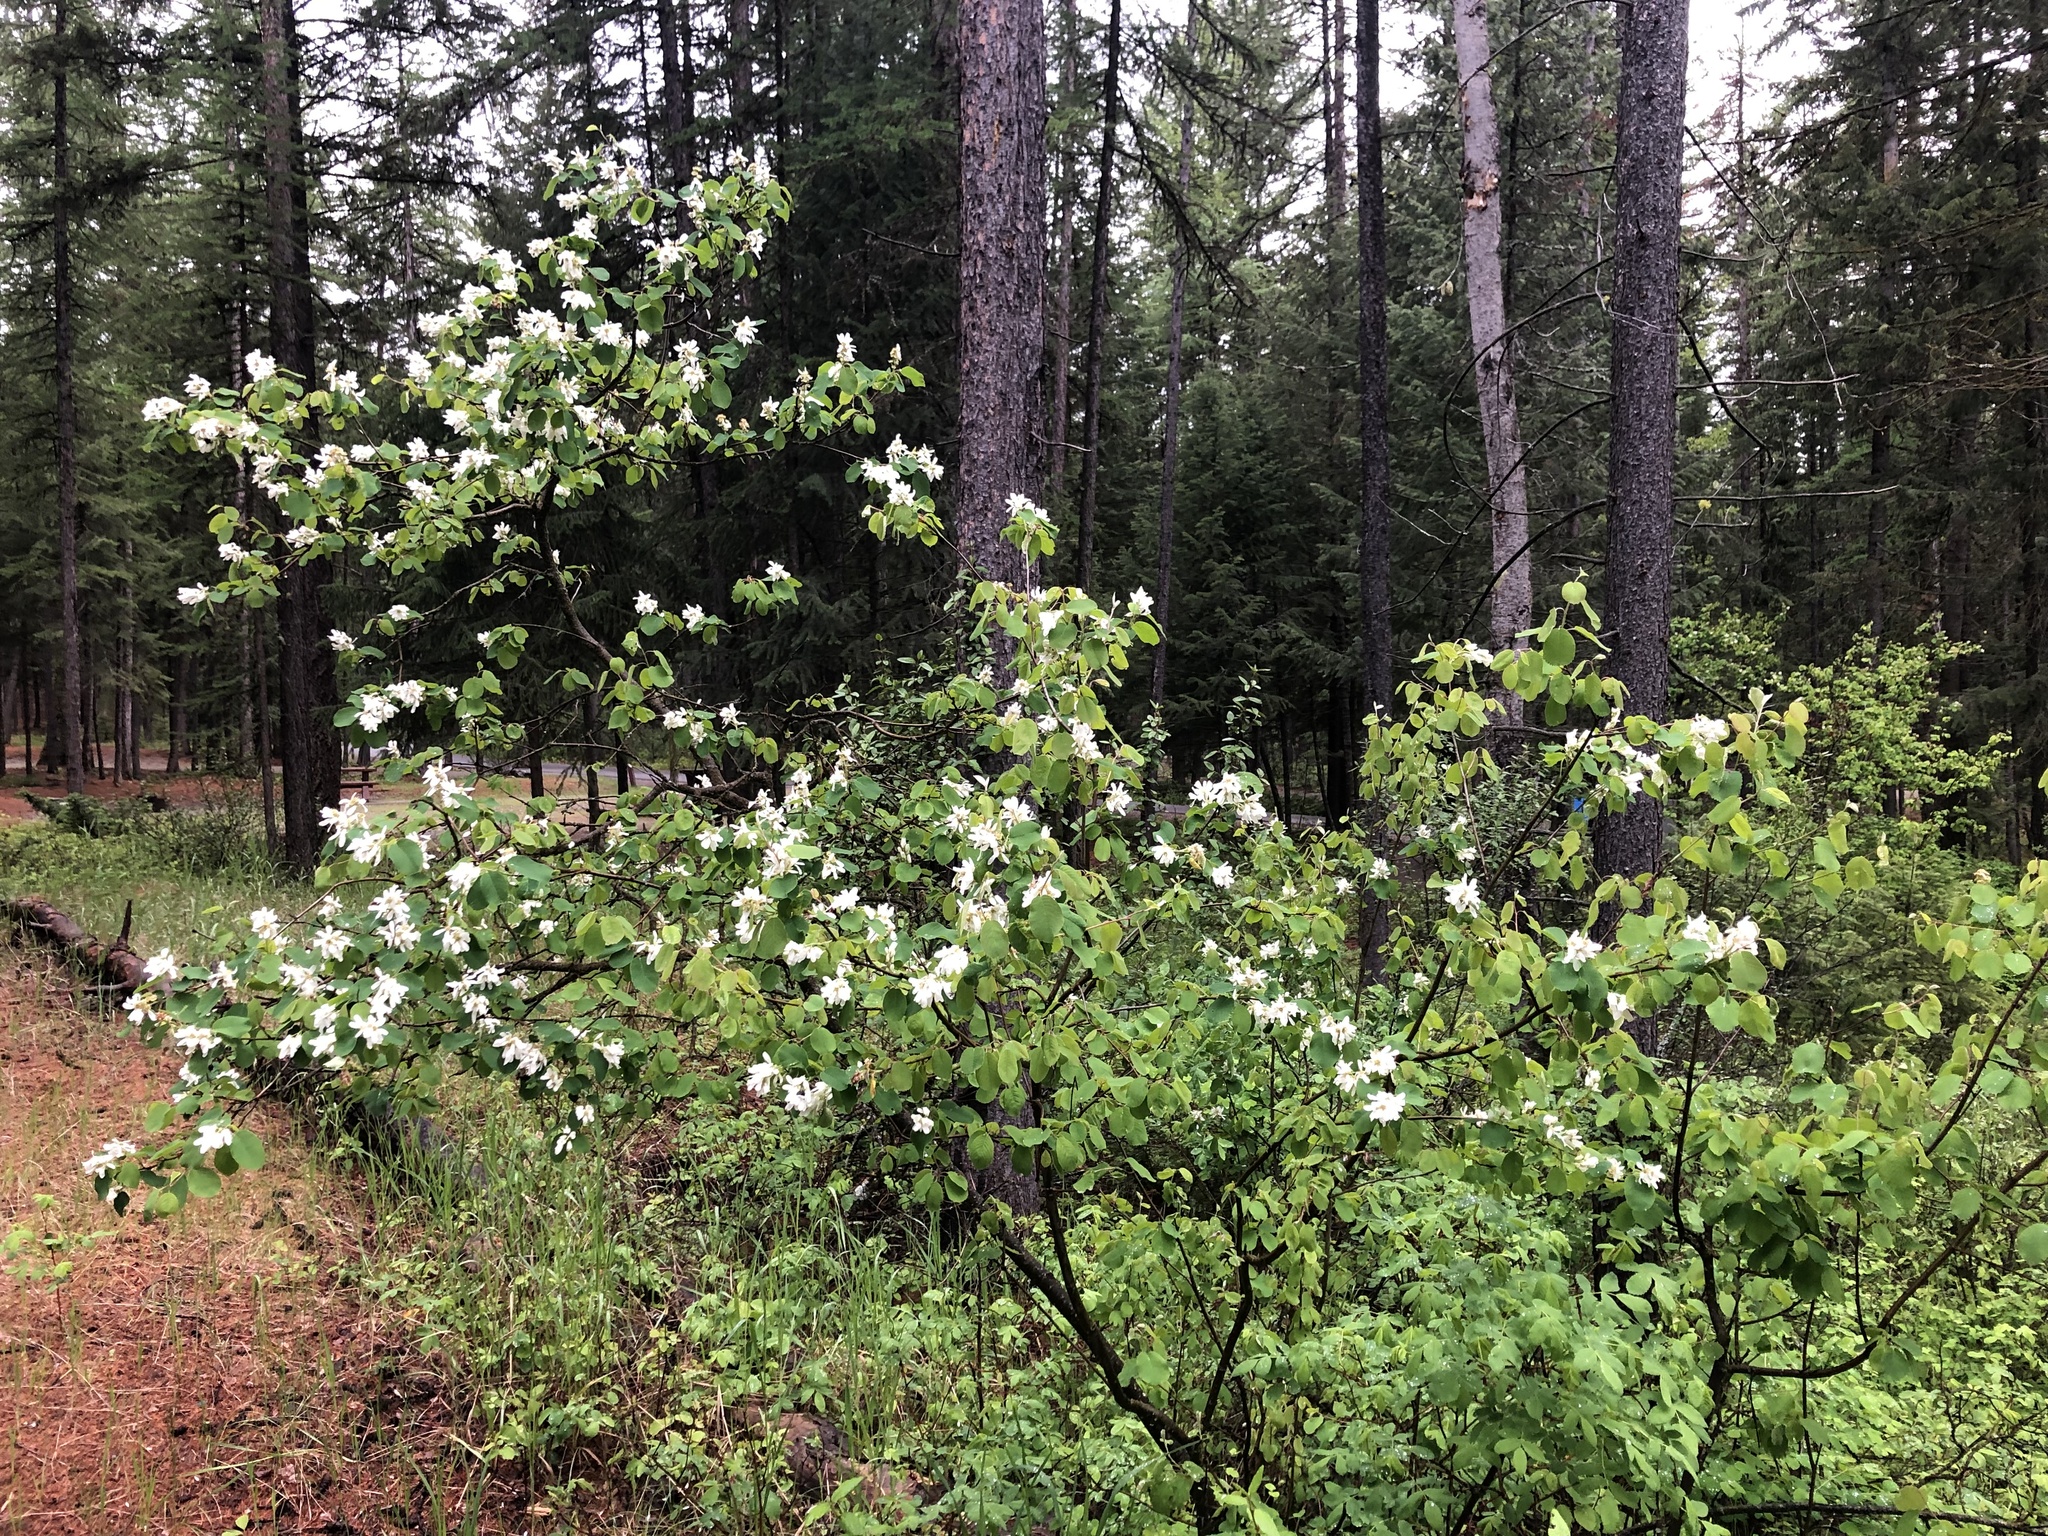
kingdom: Plantae
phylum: Tracheophyta
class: Magnoliopsida
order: Rosales
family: Rosaceae
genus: Amelanchier
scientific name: Amelanchier alnifolia
